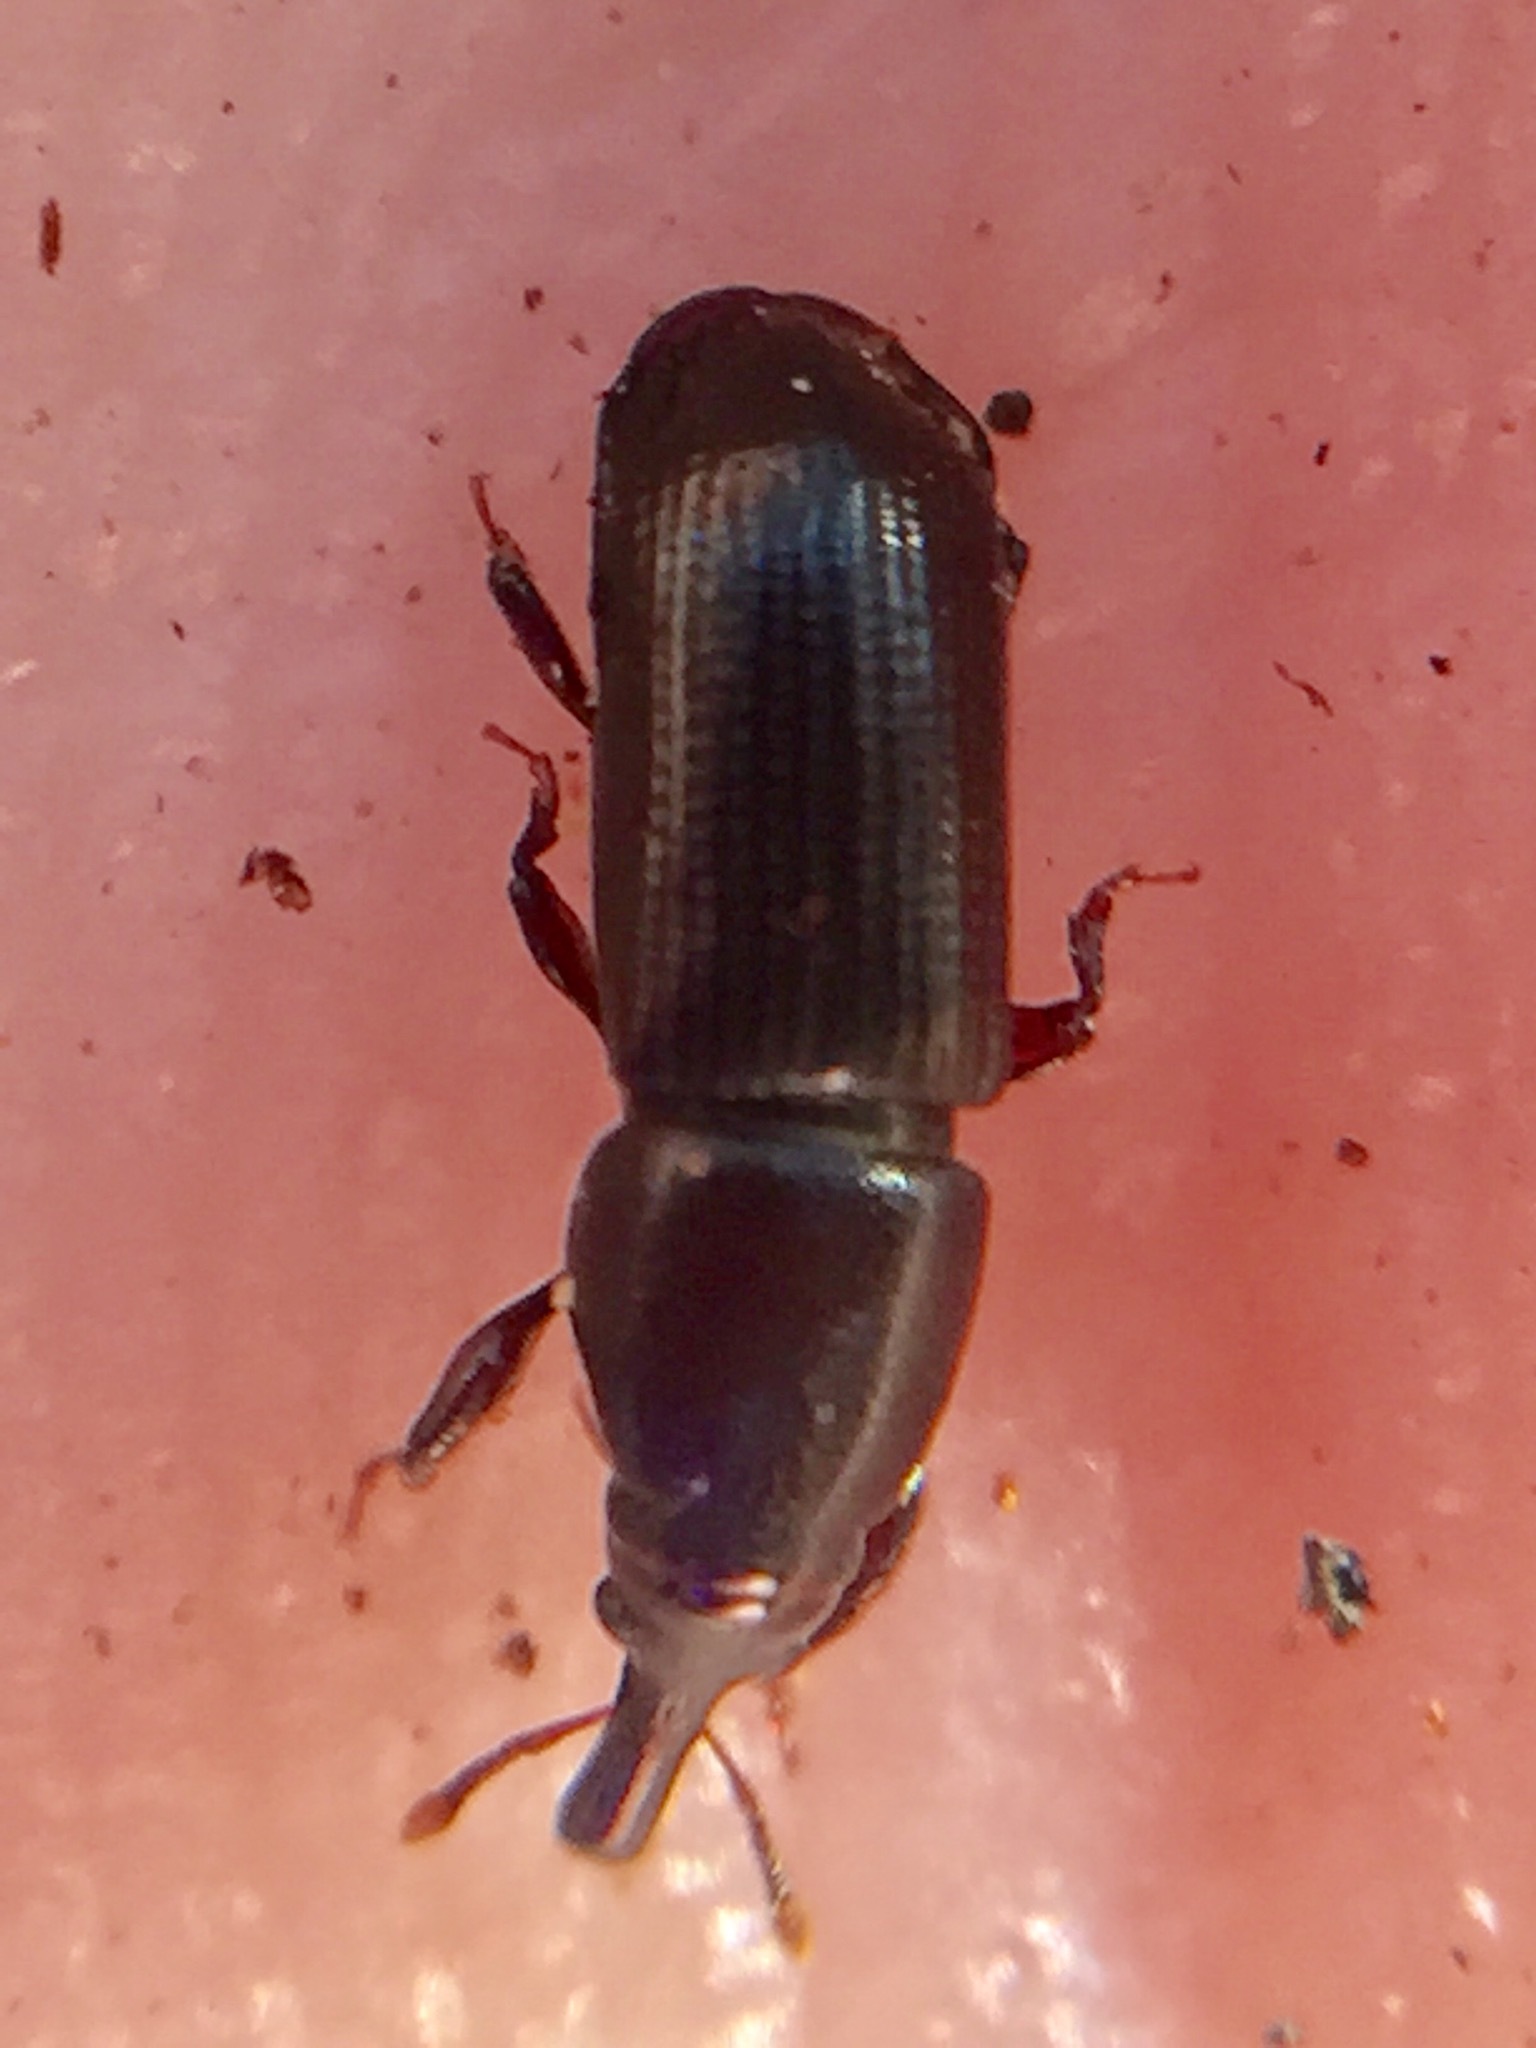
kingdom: Animalia
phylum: Arthropoda
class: Insecta
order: Coleoptera
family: Curculionidae
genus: Torostoma
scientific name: Torostoma apicale
